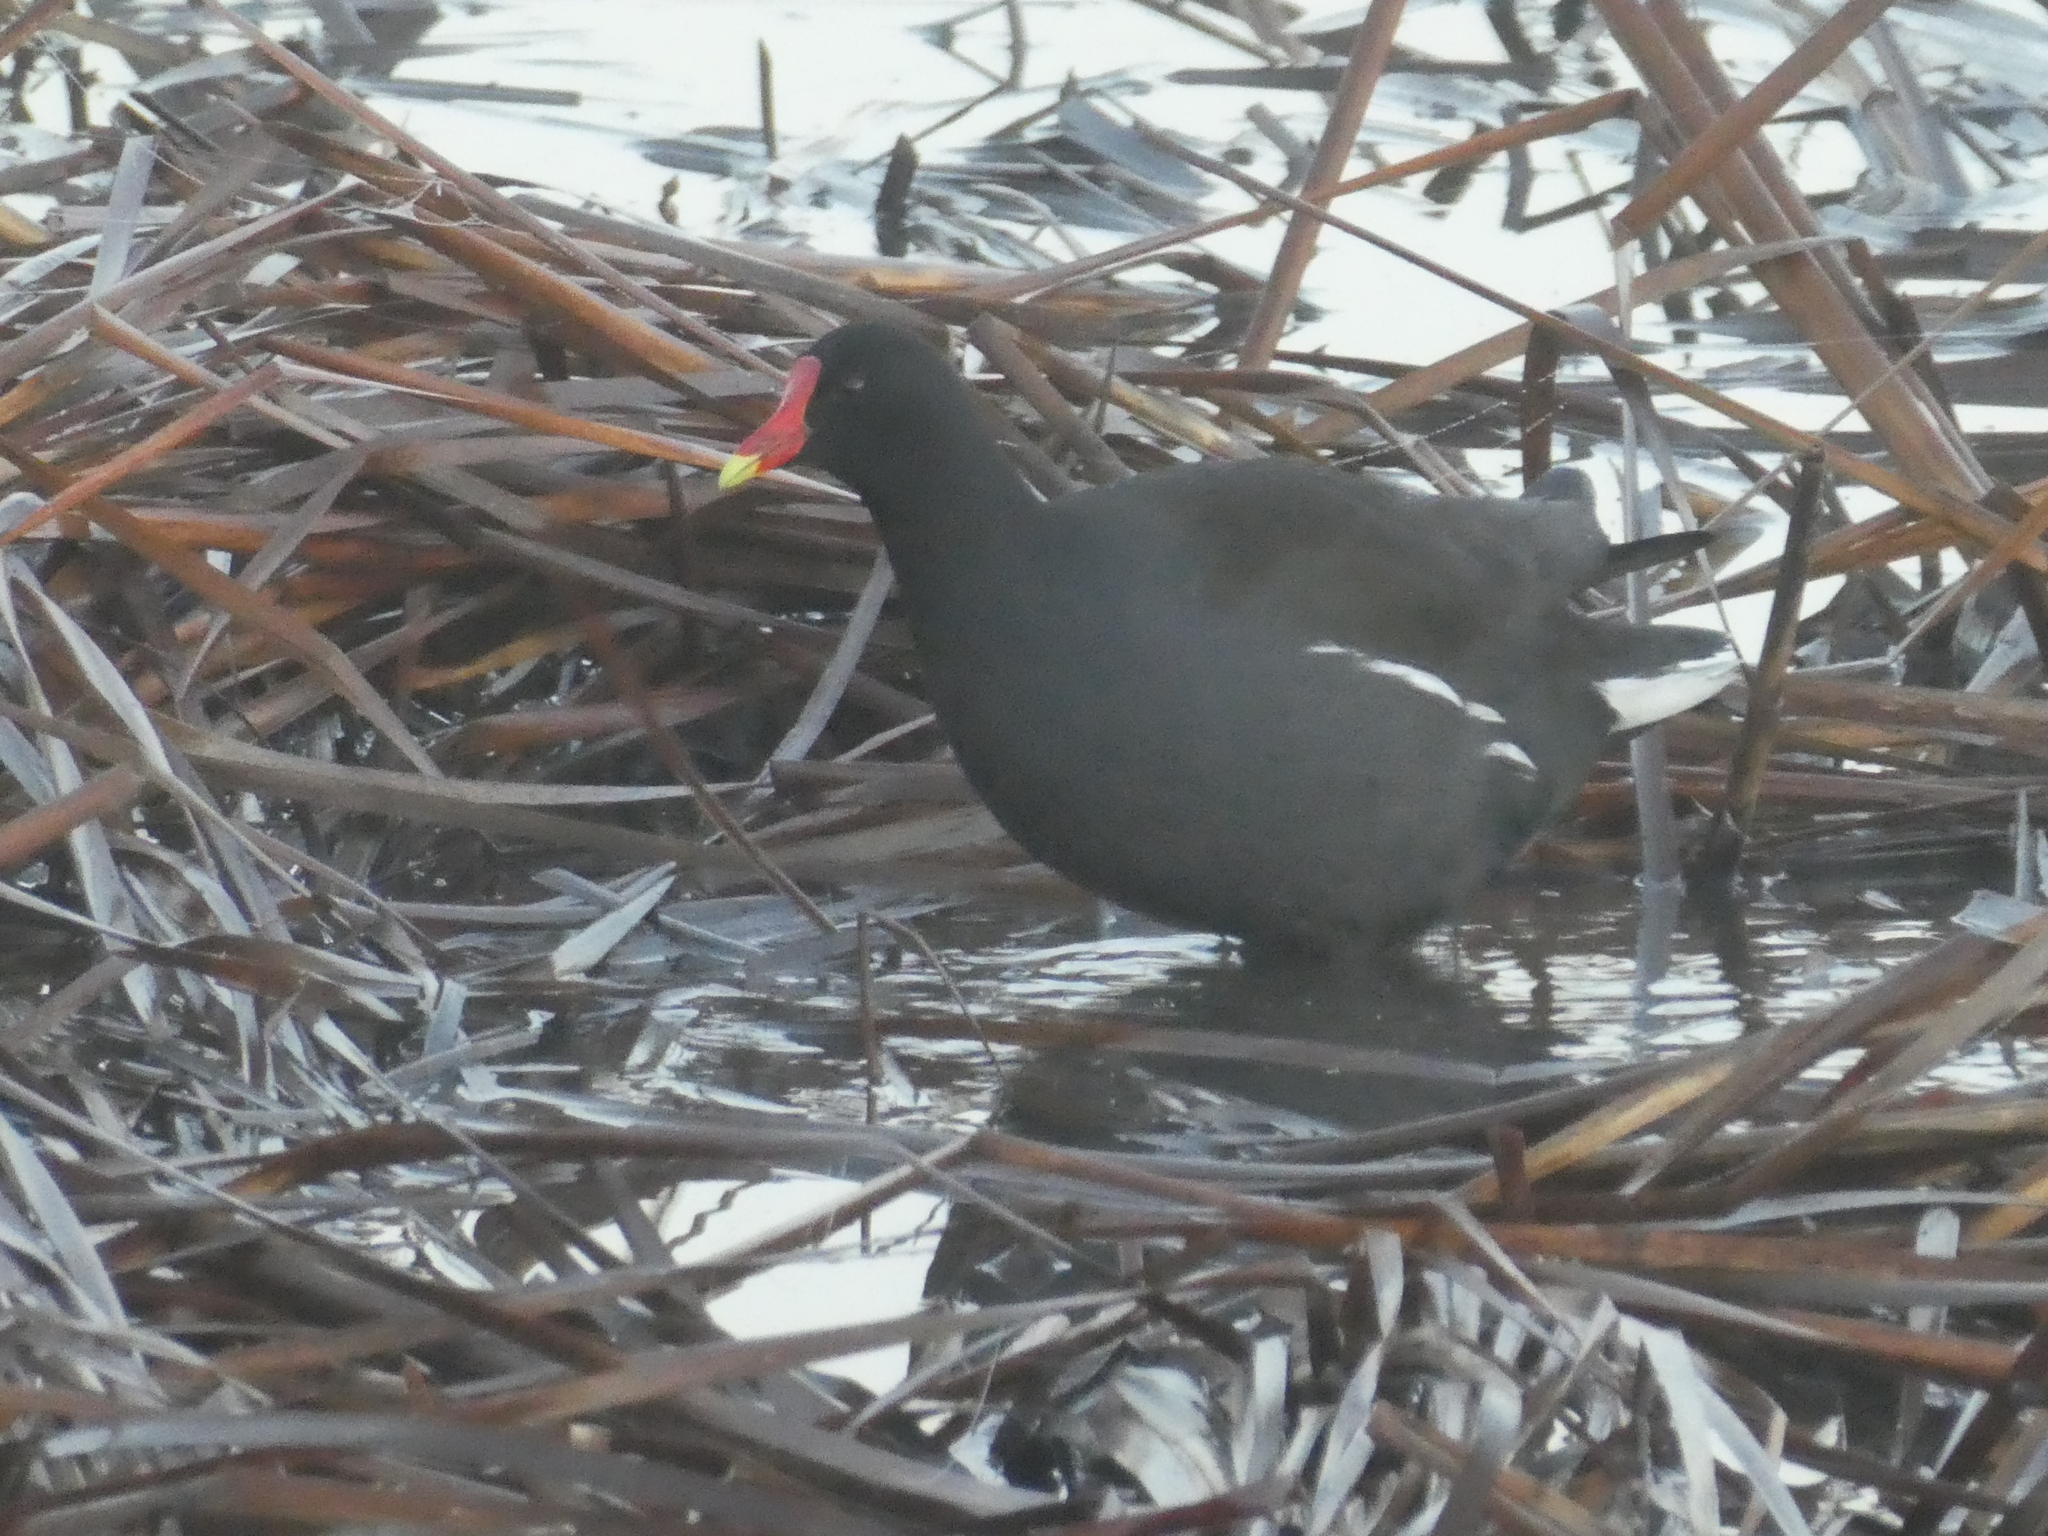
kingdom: Animalia
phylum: Chordata
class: Aves
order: Gruiformes
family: Rallidae
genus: Gallinula
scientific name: Gallinula chloropus
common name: Common moorhen
